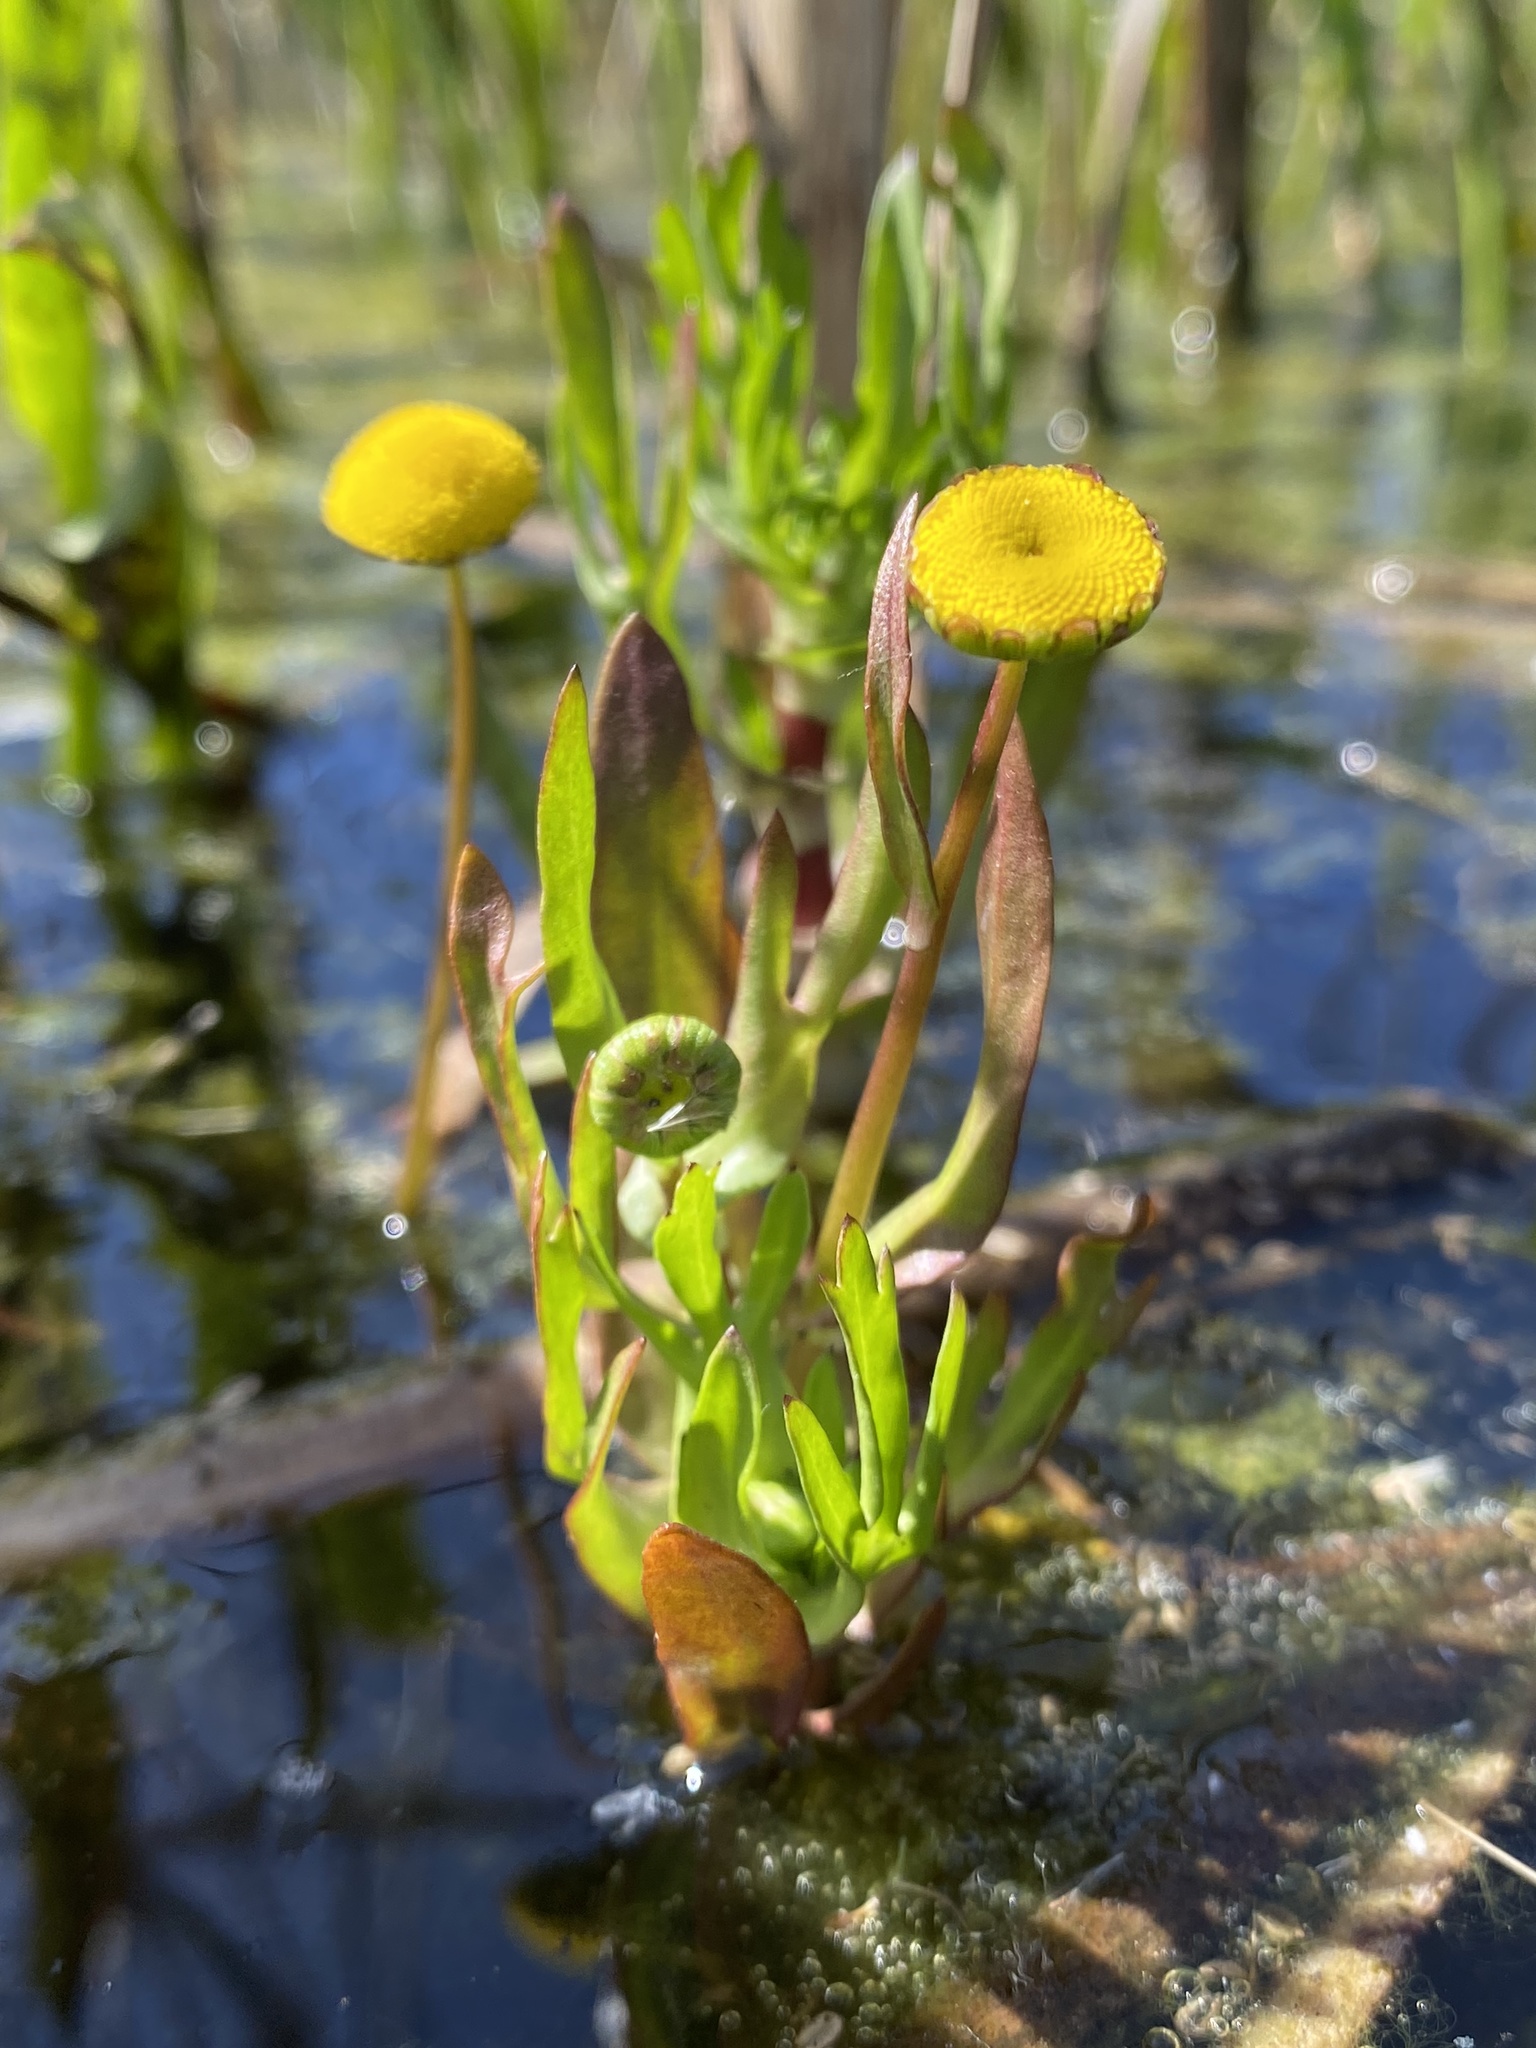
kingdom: Plantae
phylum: Tracheophyta
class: Magnoliopsida
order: Asterales
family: Asteraceae
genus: Cotula
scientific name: Cotula coronopifolia
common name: Buttonweed
